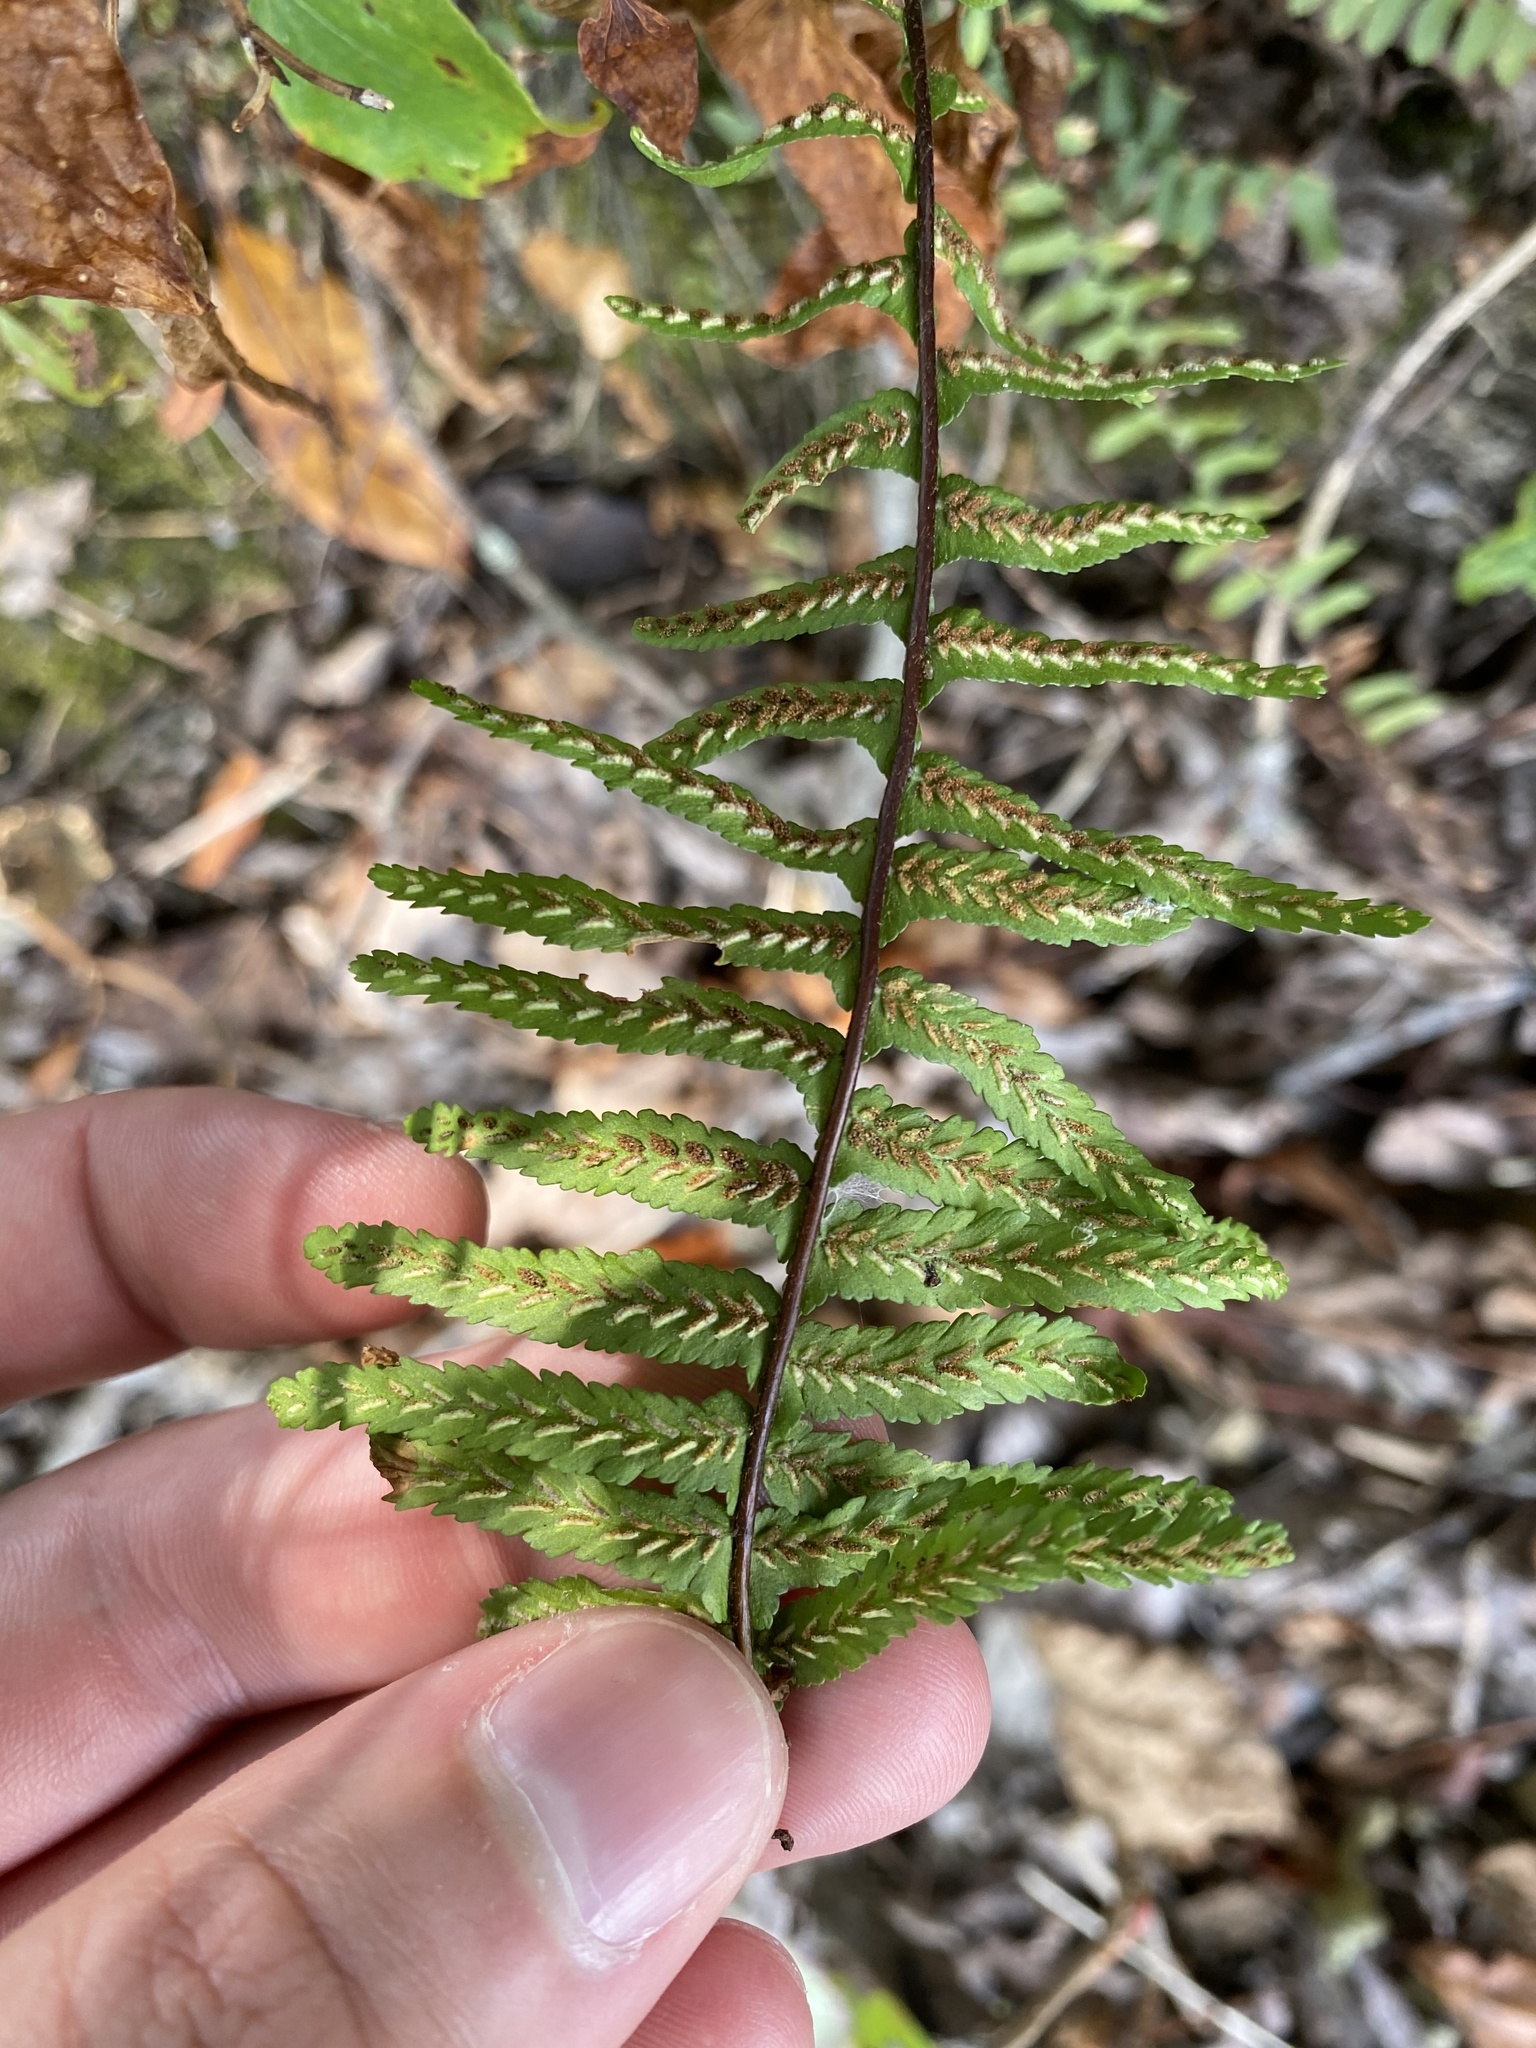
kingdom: Plantae
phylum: Tracheophyta
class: Polypodiopsida
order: Polypodiales
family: Aspleniaceae
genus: Asplenium
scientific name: Asplenium platyneuron
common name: Ebony spleenwort
